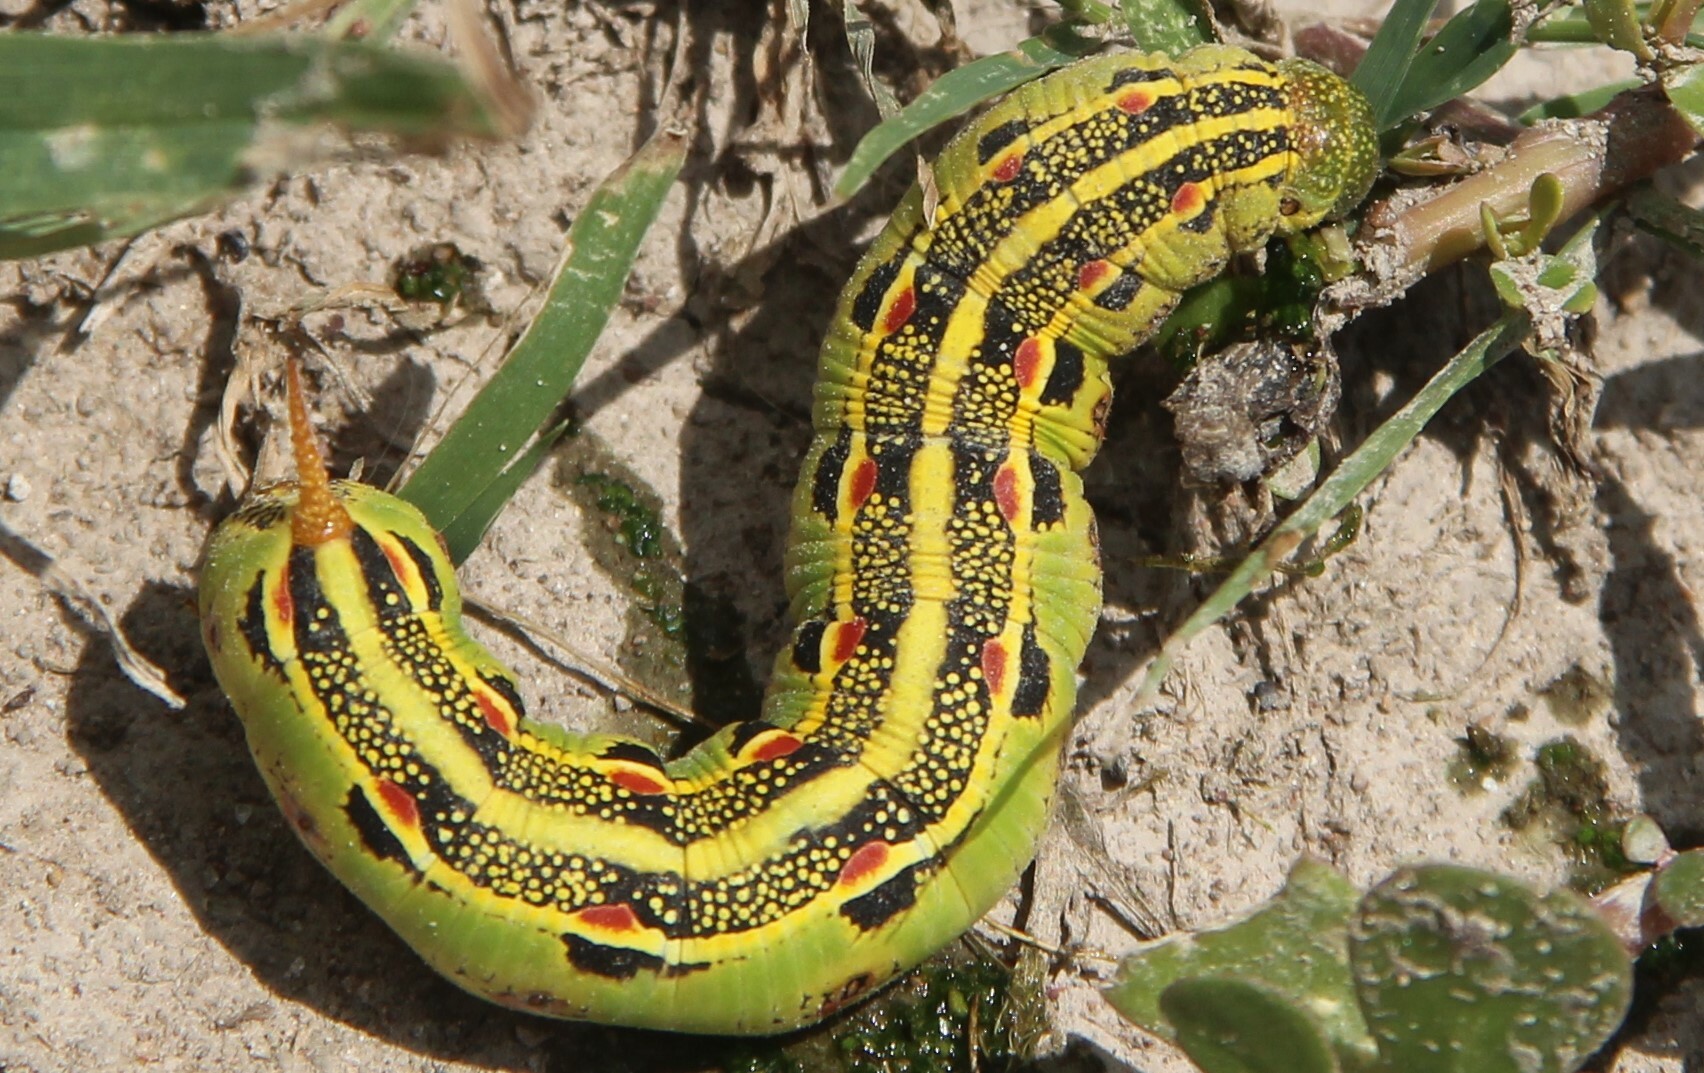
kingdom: Animalia
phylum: Arthropoda
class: Insecta
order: Lepidoptera
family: Sphingidae
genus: Hyles
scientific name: Hyles lineata
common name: White-lined sphinx
